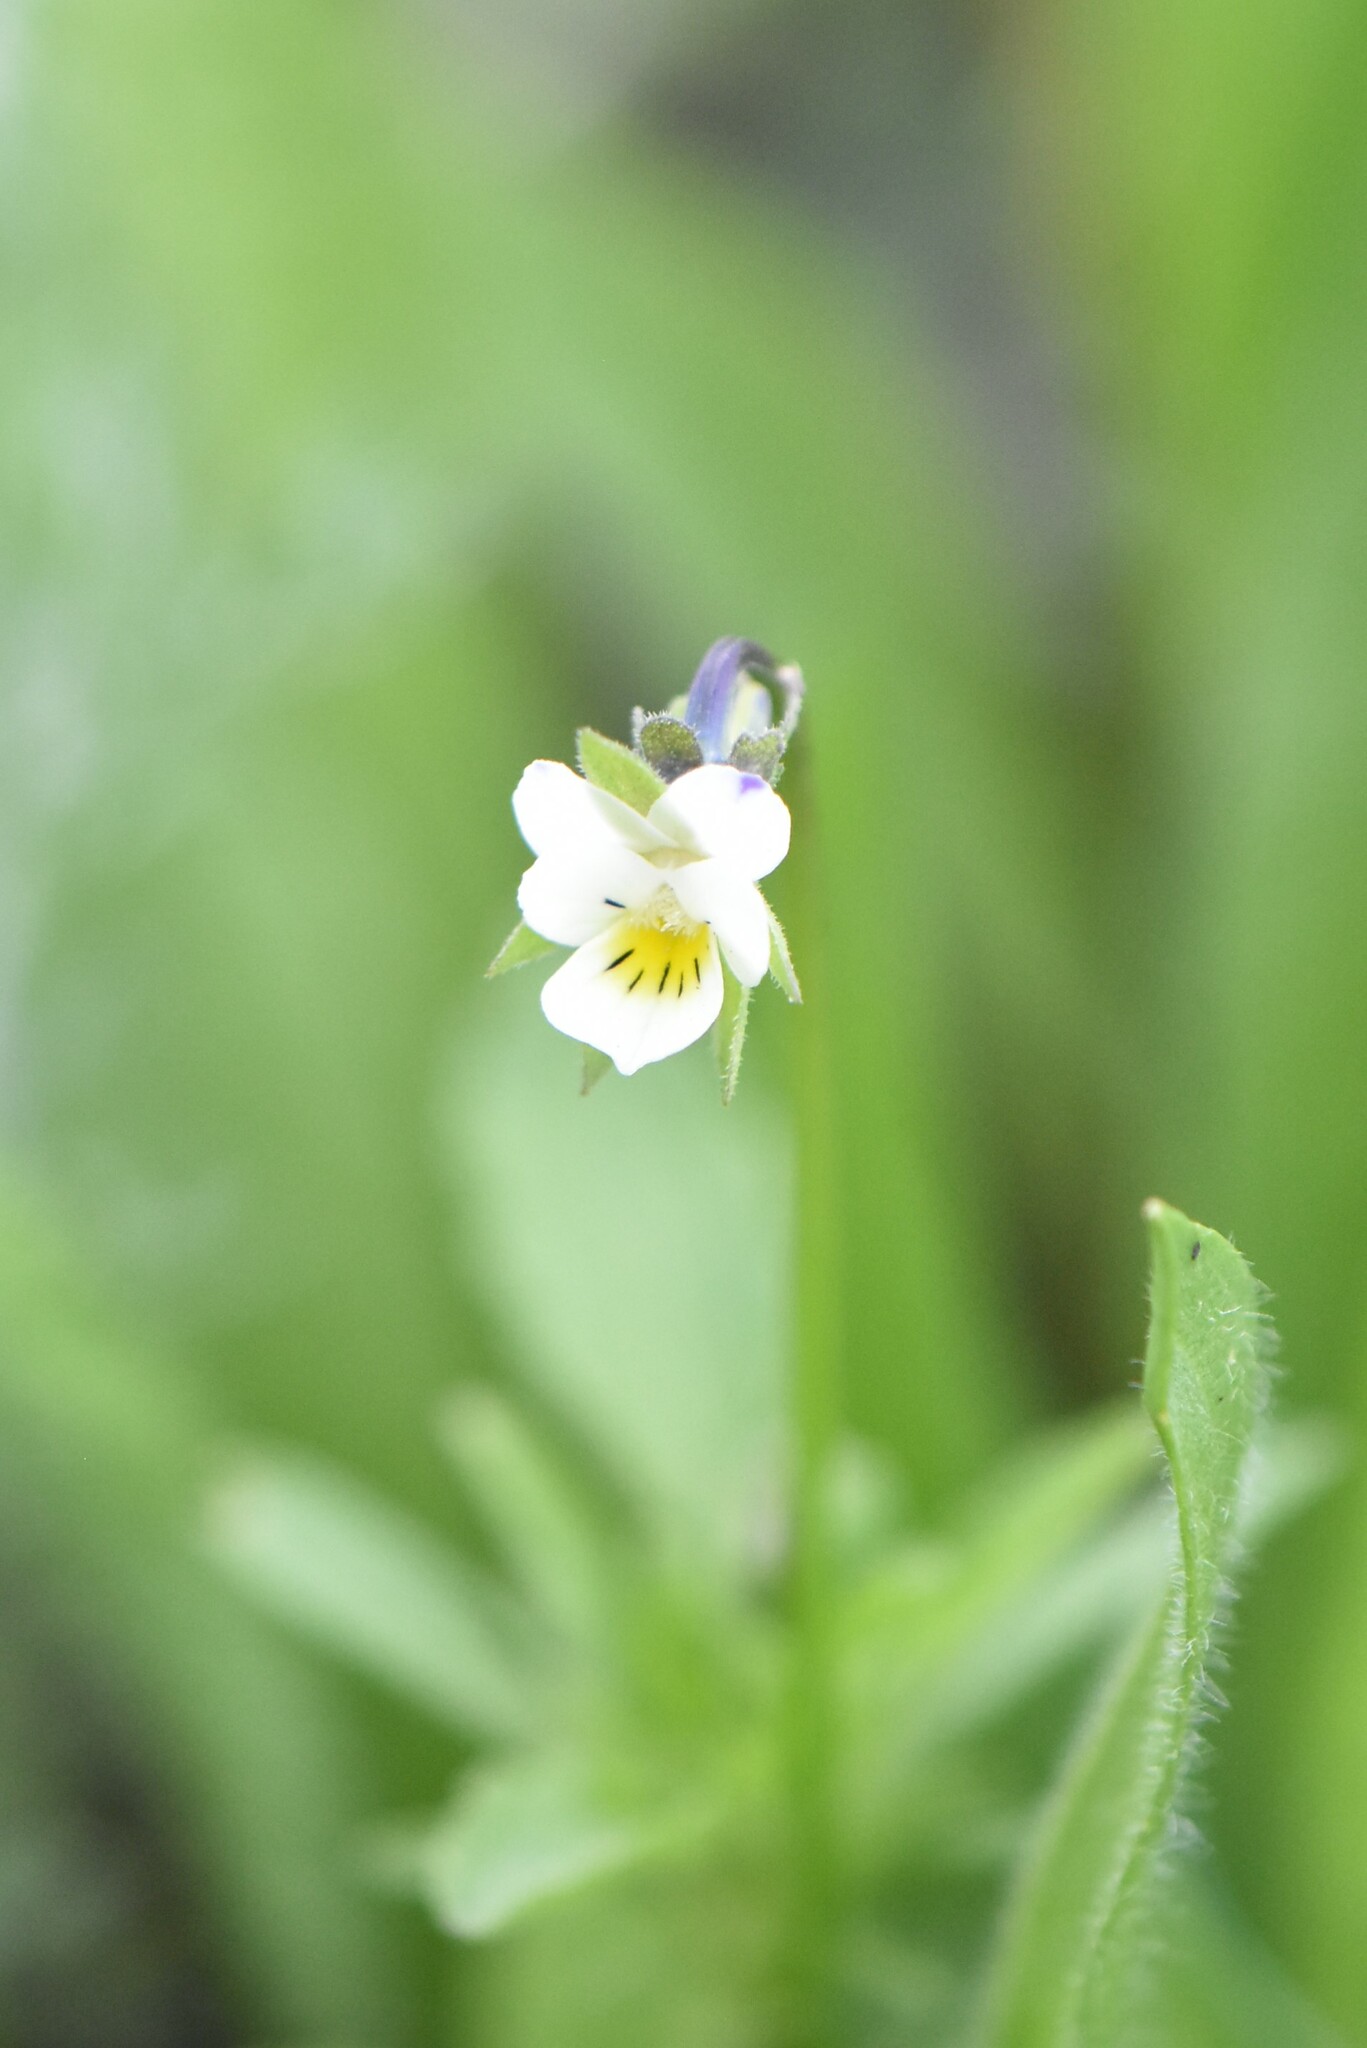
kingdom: Plantae
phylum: Tracheophyta
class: Magnoliopsida
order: Malpighiales
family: Violaceae
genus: Viola
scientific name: Viola arvensis
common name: Field pansy
